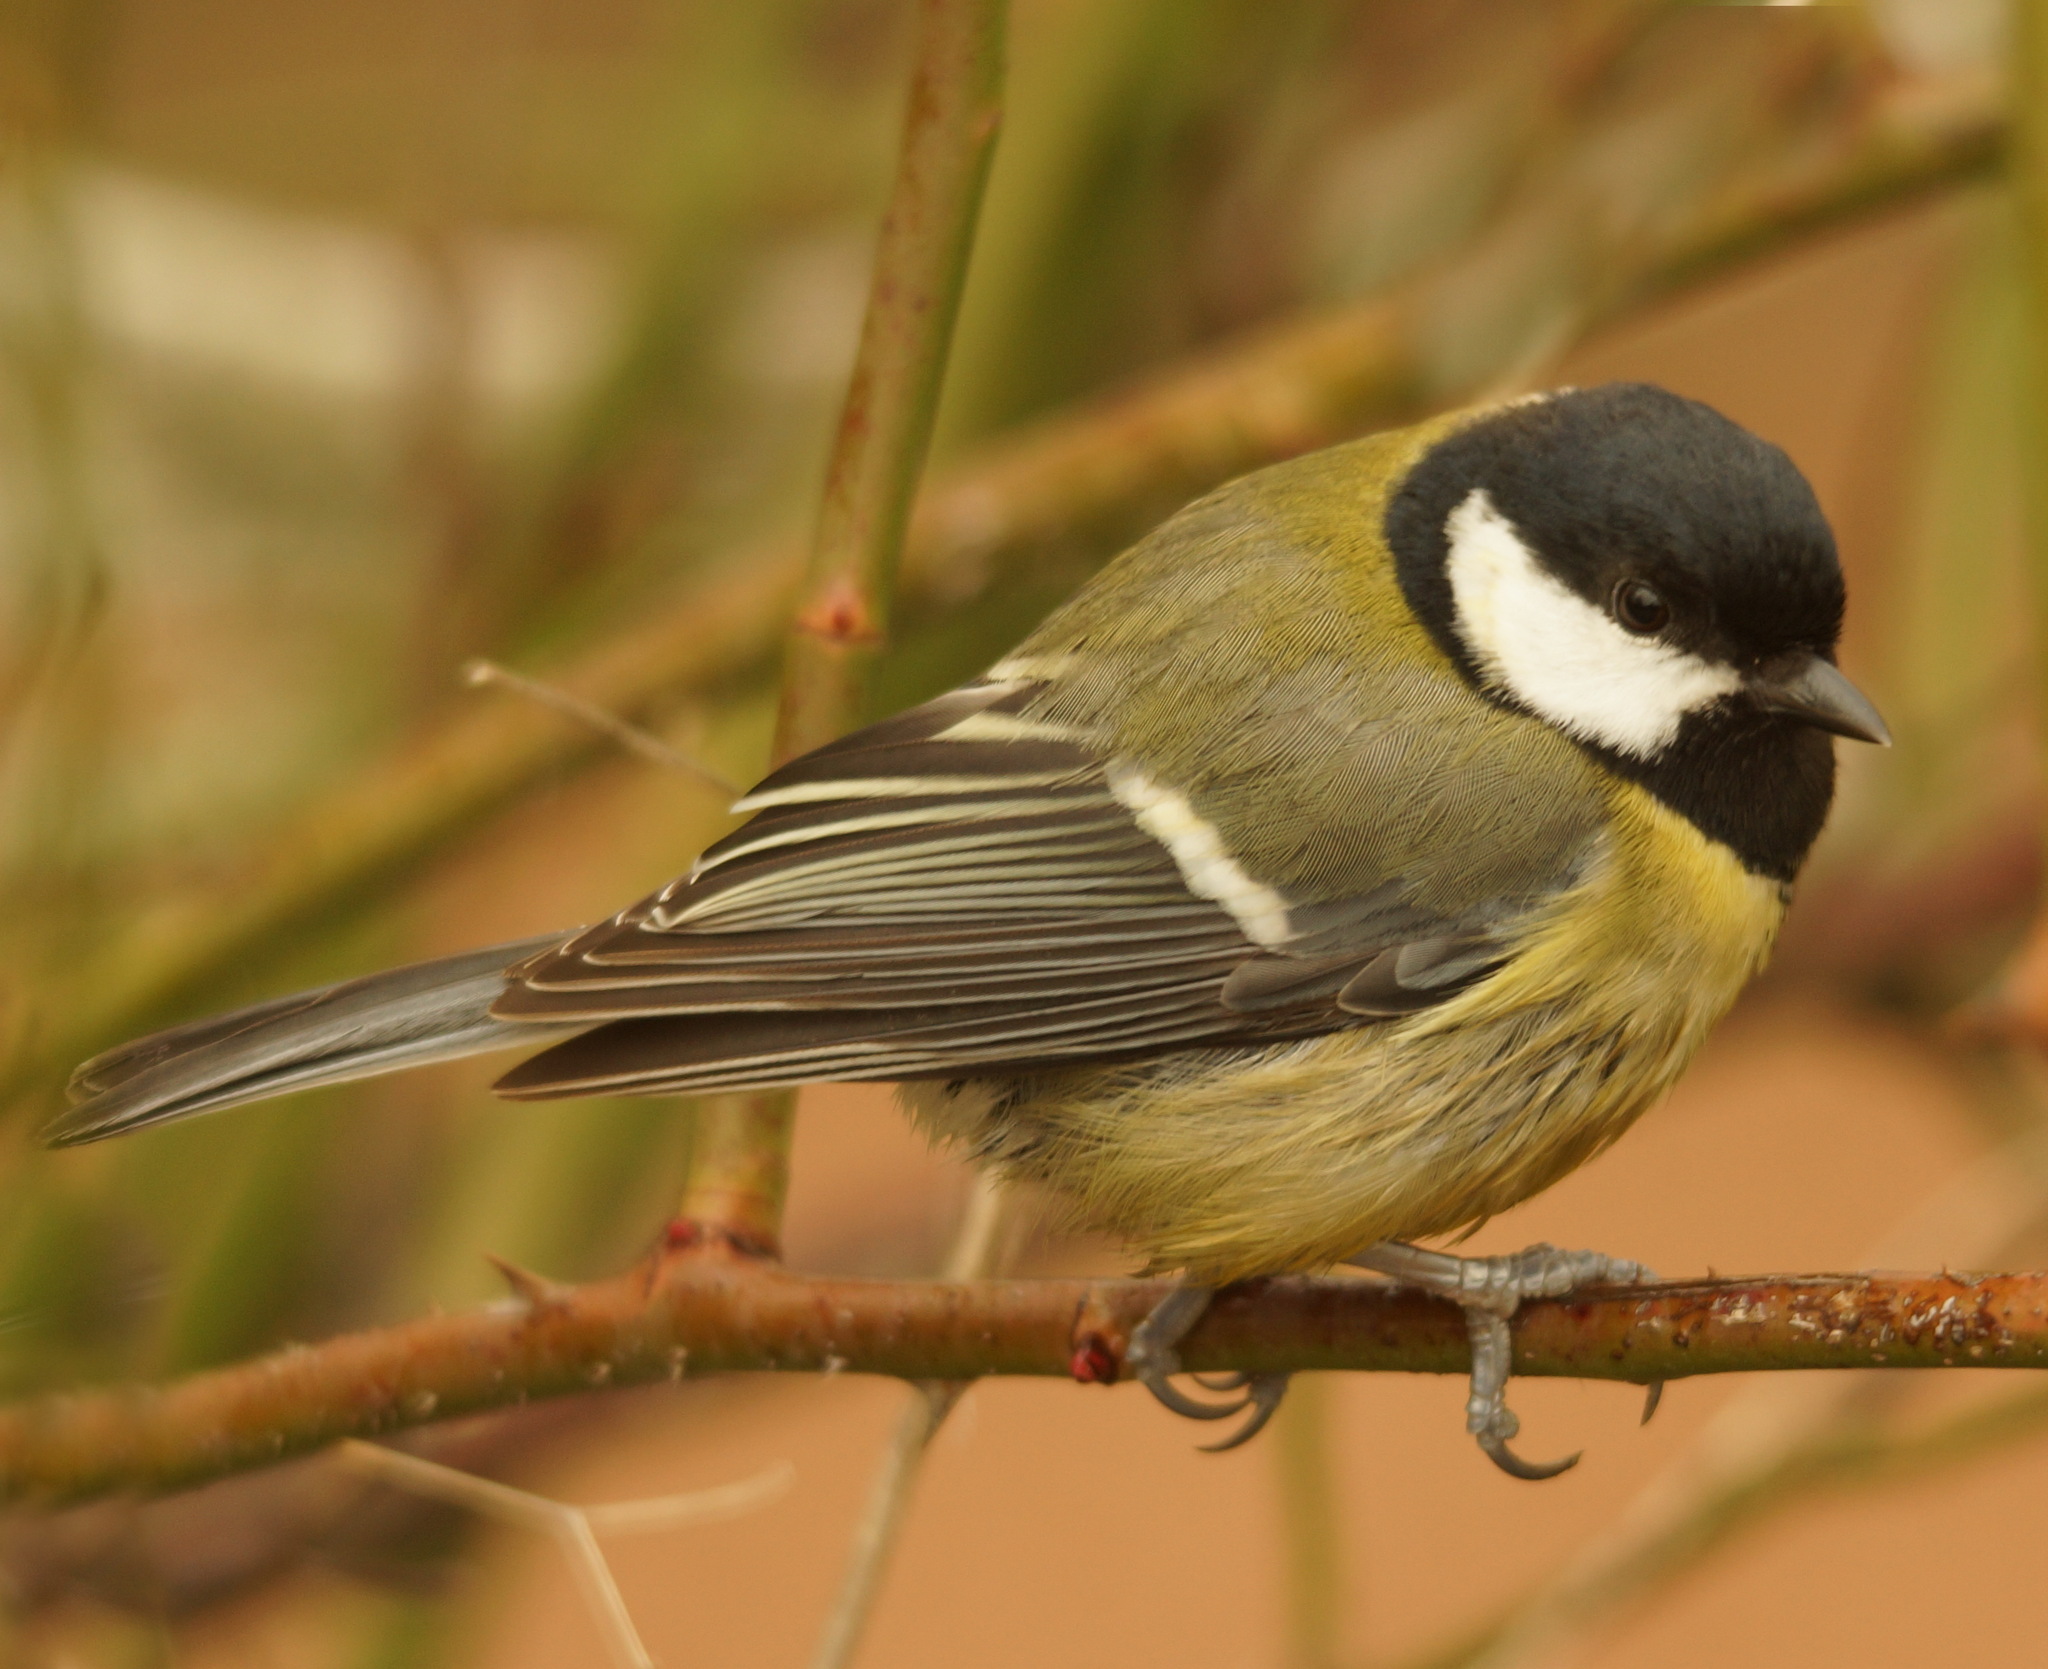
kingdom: Animalia
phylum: Chordata
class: Aves
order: Passeriformes
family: Paridae
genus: Parus
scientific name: Parus major
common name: Great tit
